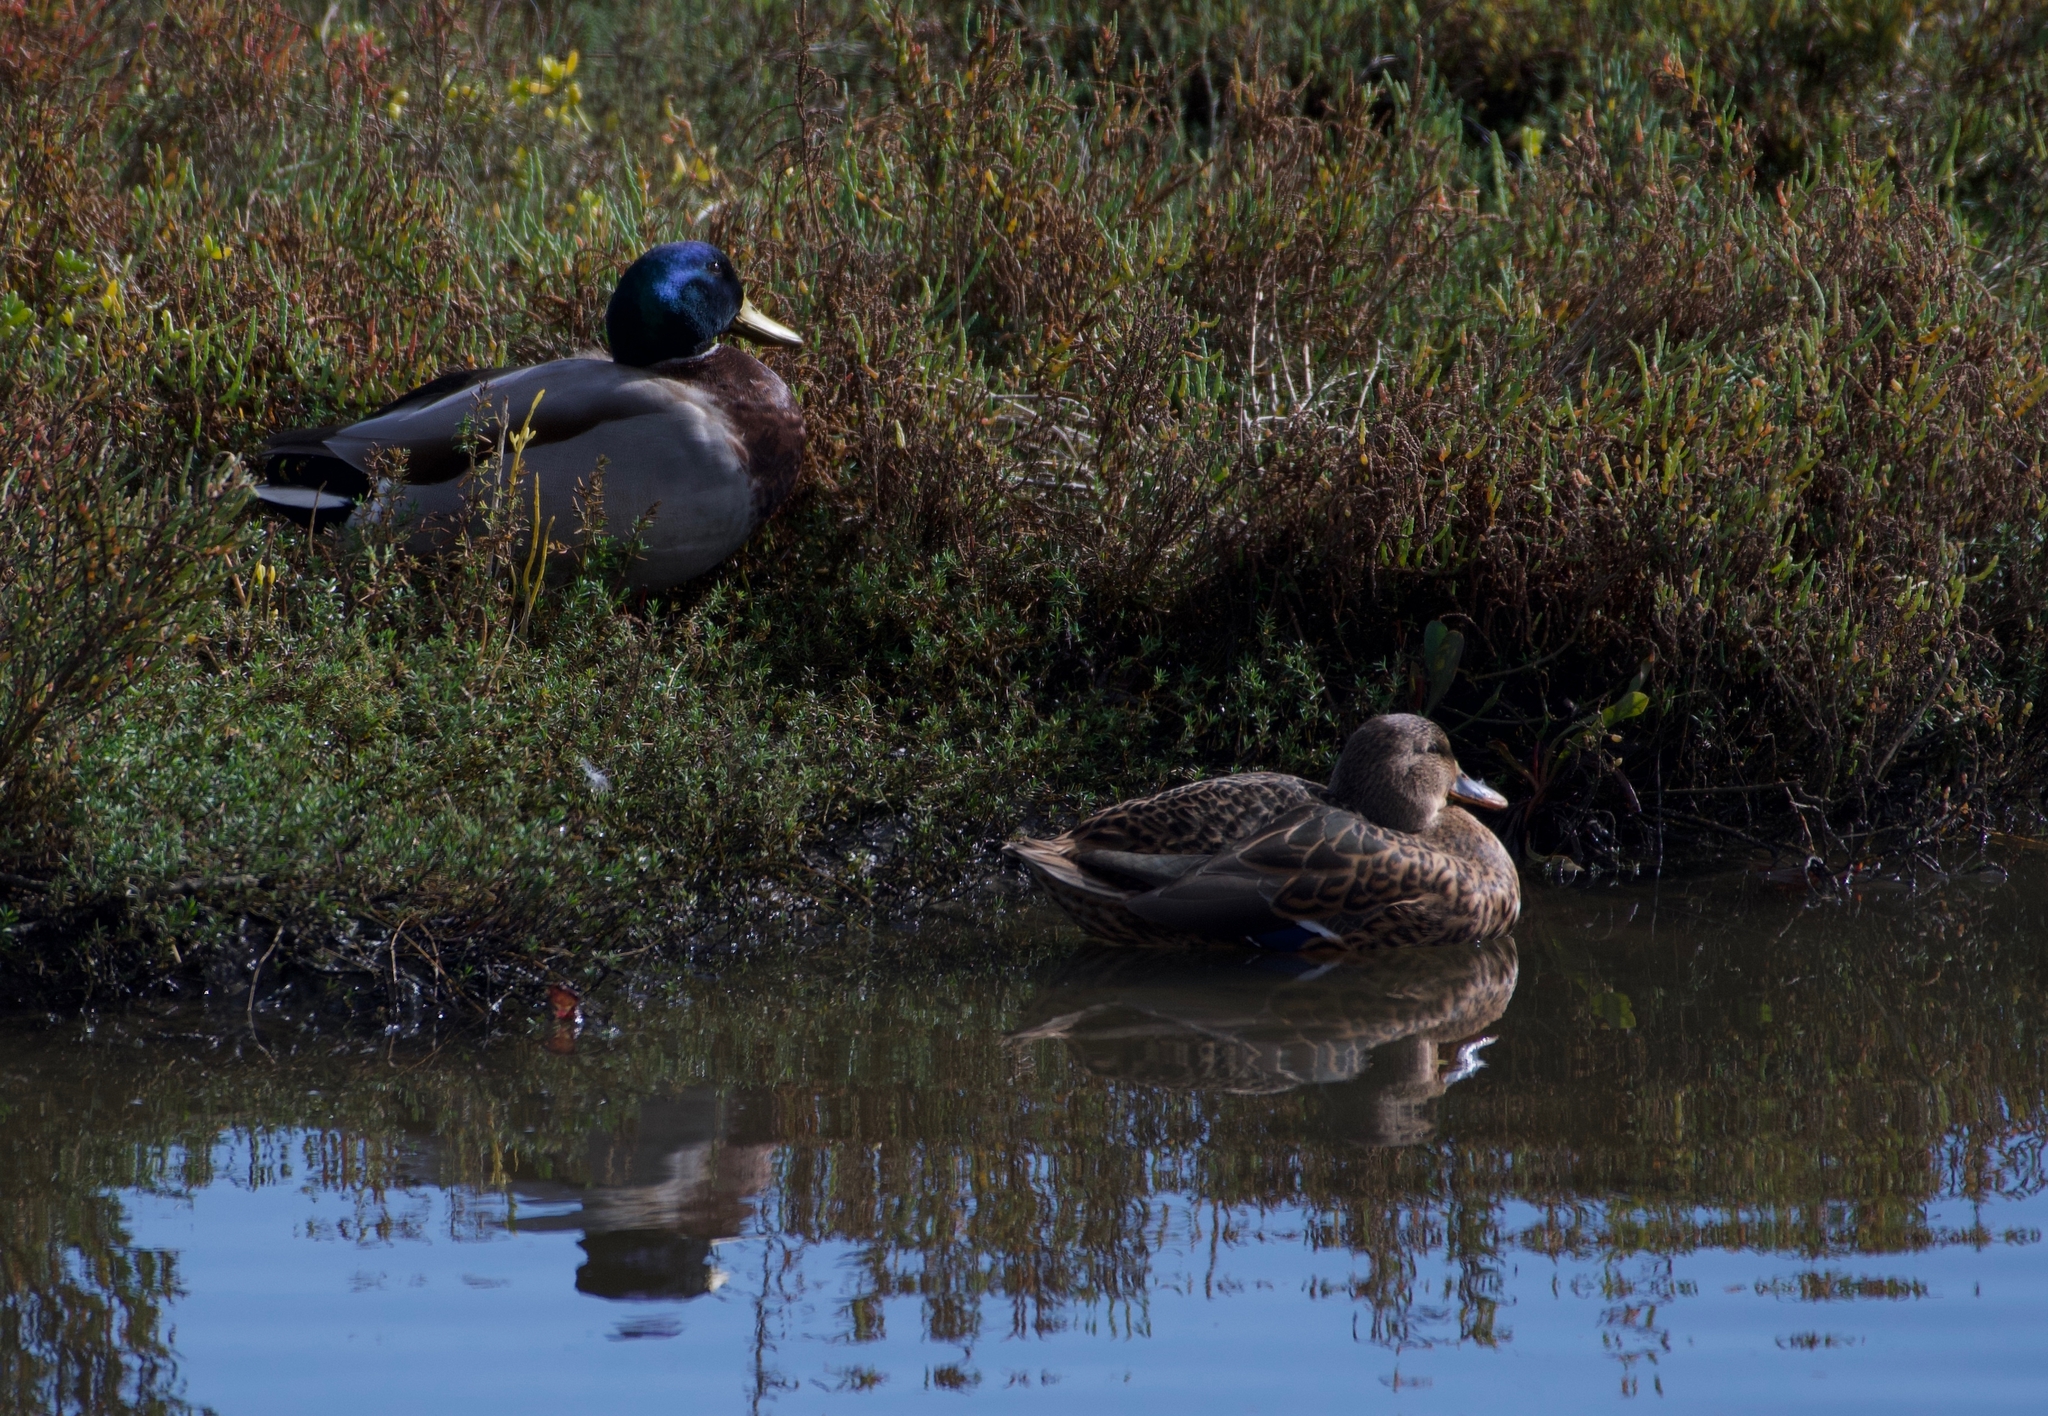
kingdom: Animalia
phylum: Chordata
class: Aves
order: Anseriformes
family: Anatidae
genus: Anas
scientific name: Anas platyrhynchos
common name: Mallard
